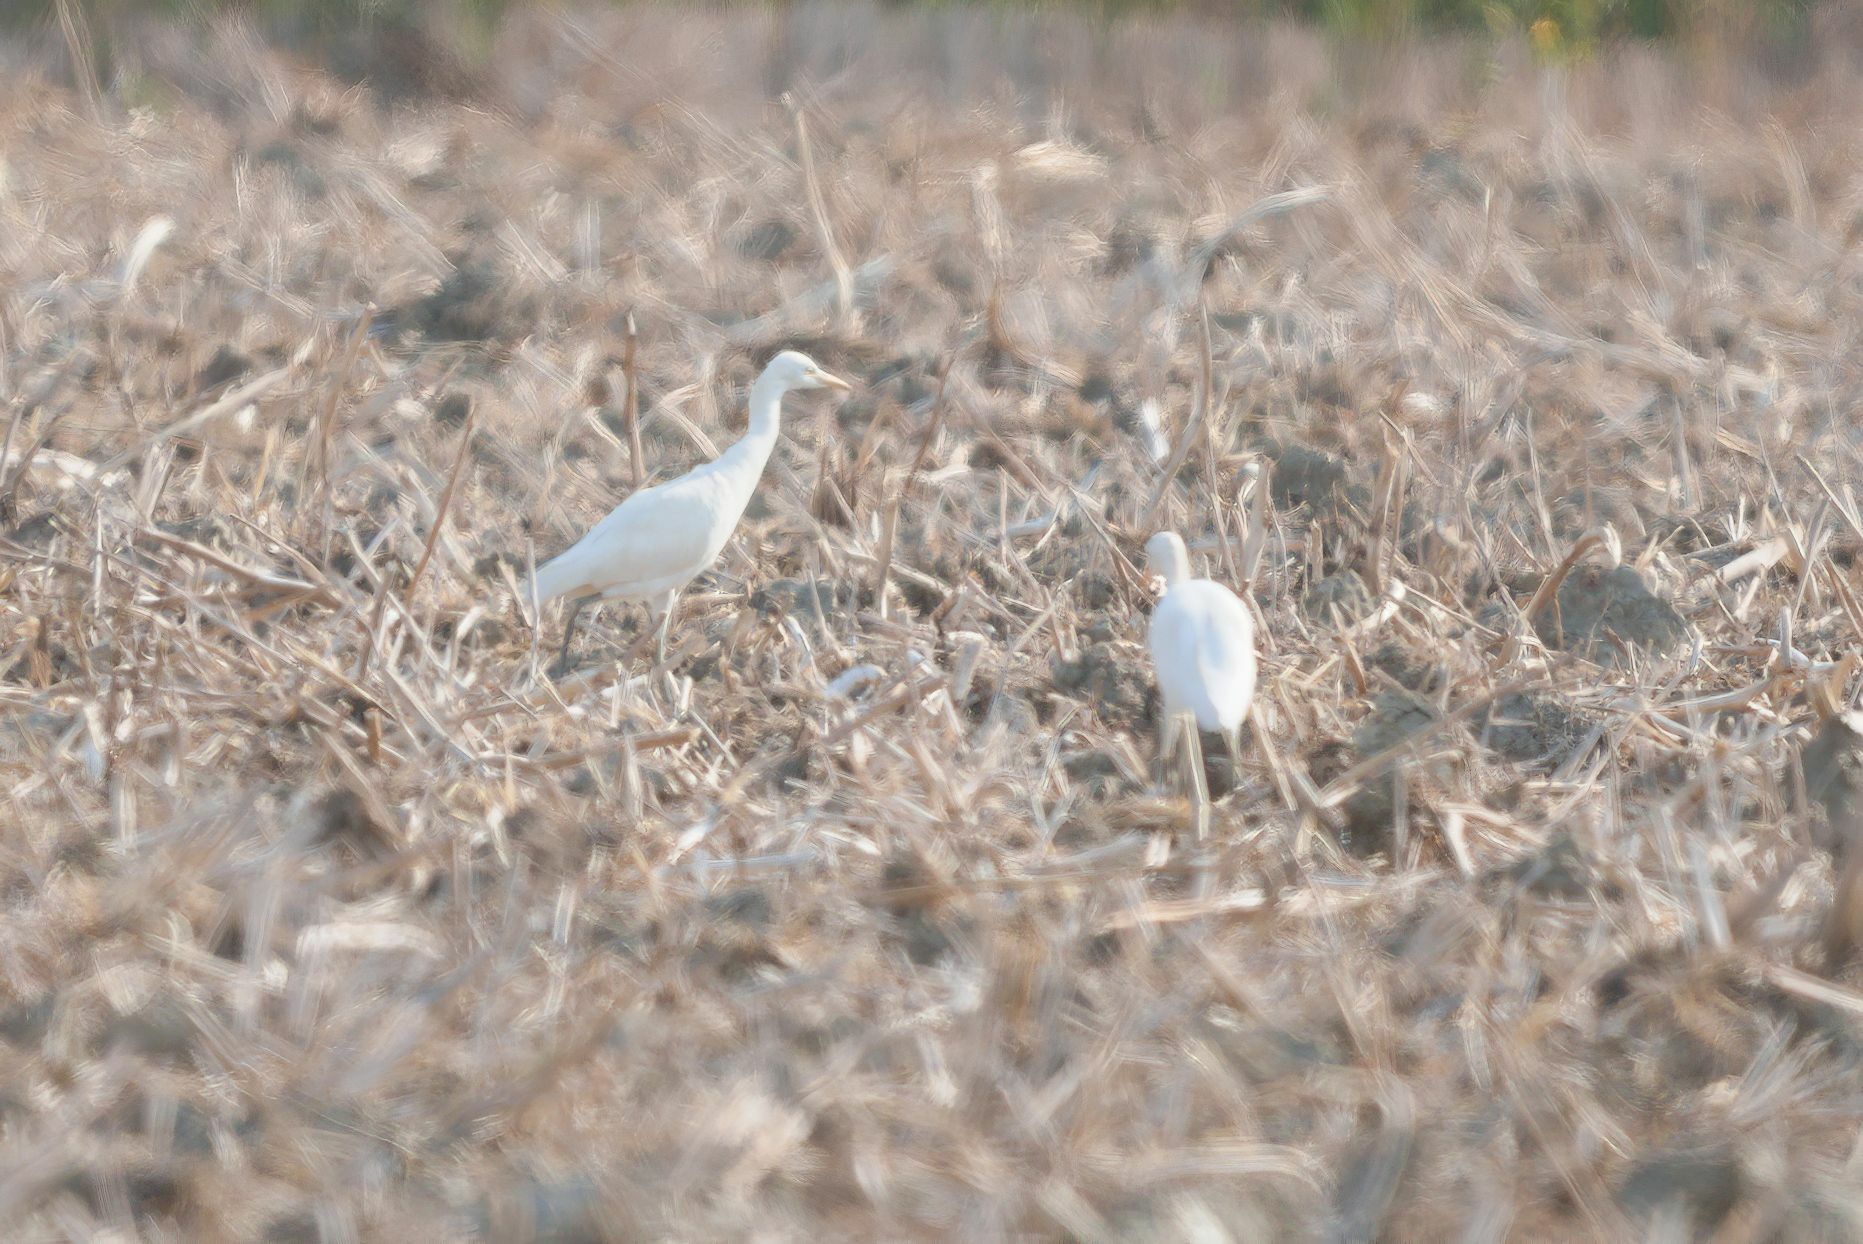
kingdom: Animalia
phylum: Chordata
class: Aves
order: Pelecaniformes
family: Ardeidae
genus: Bubulcus
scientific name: Bubulcus ibis
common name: Cattle egret
